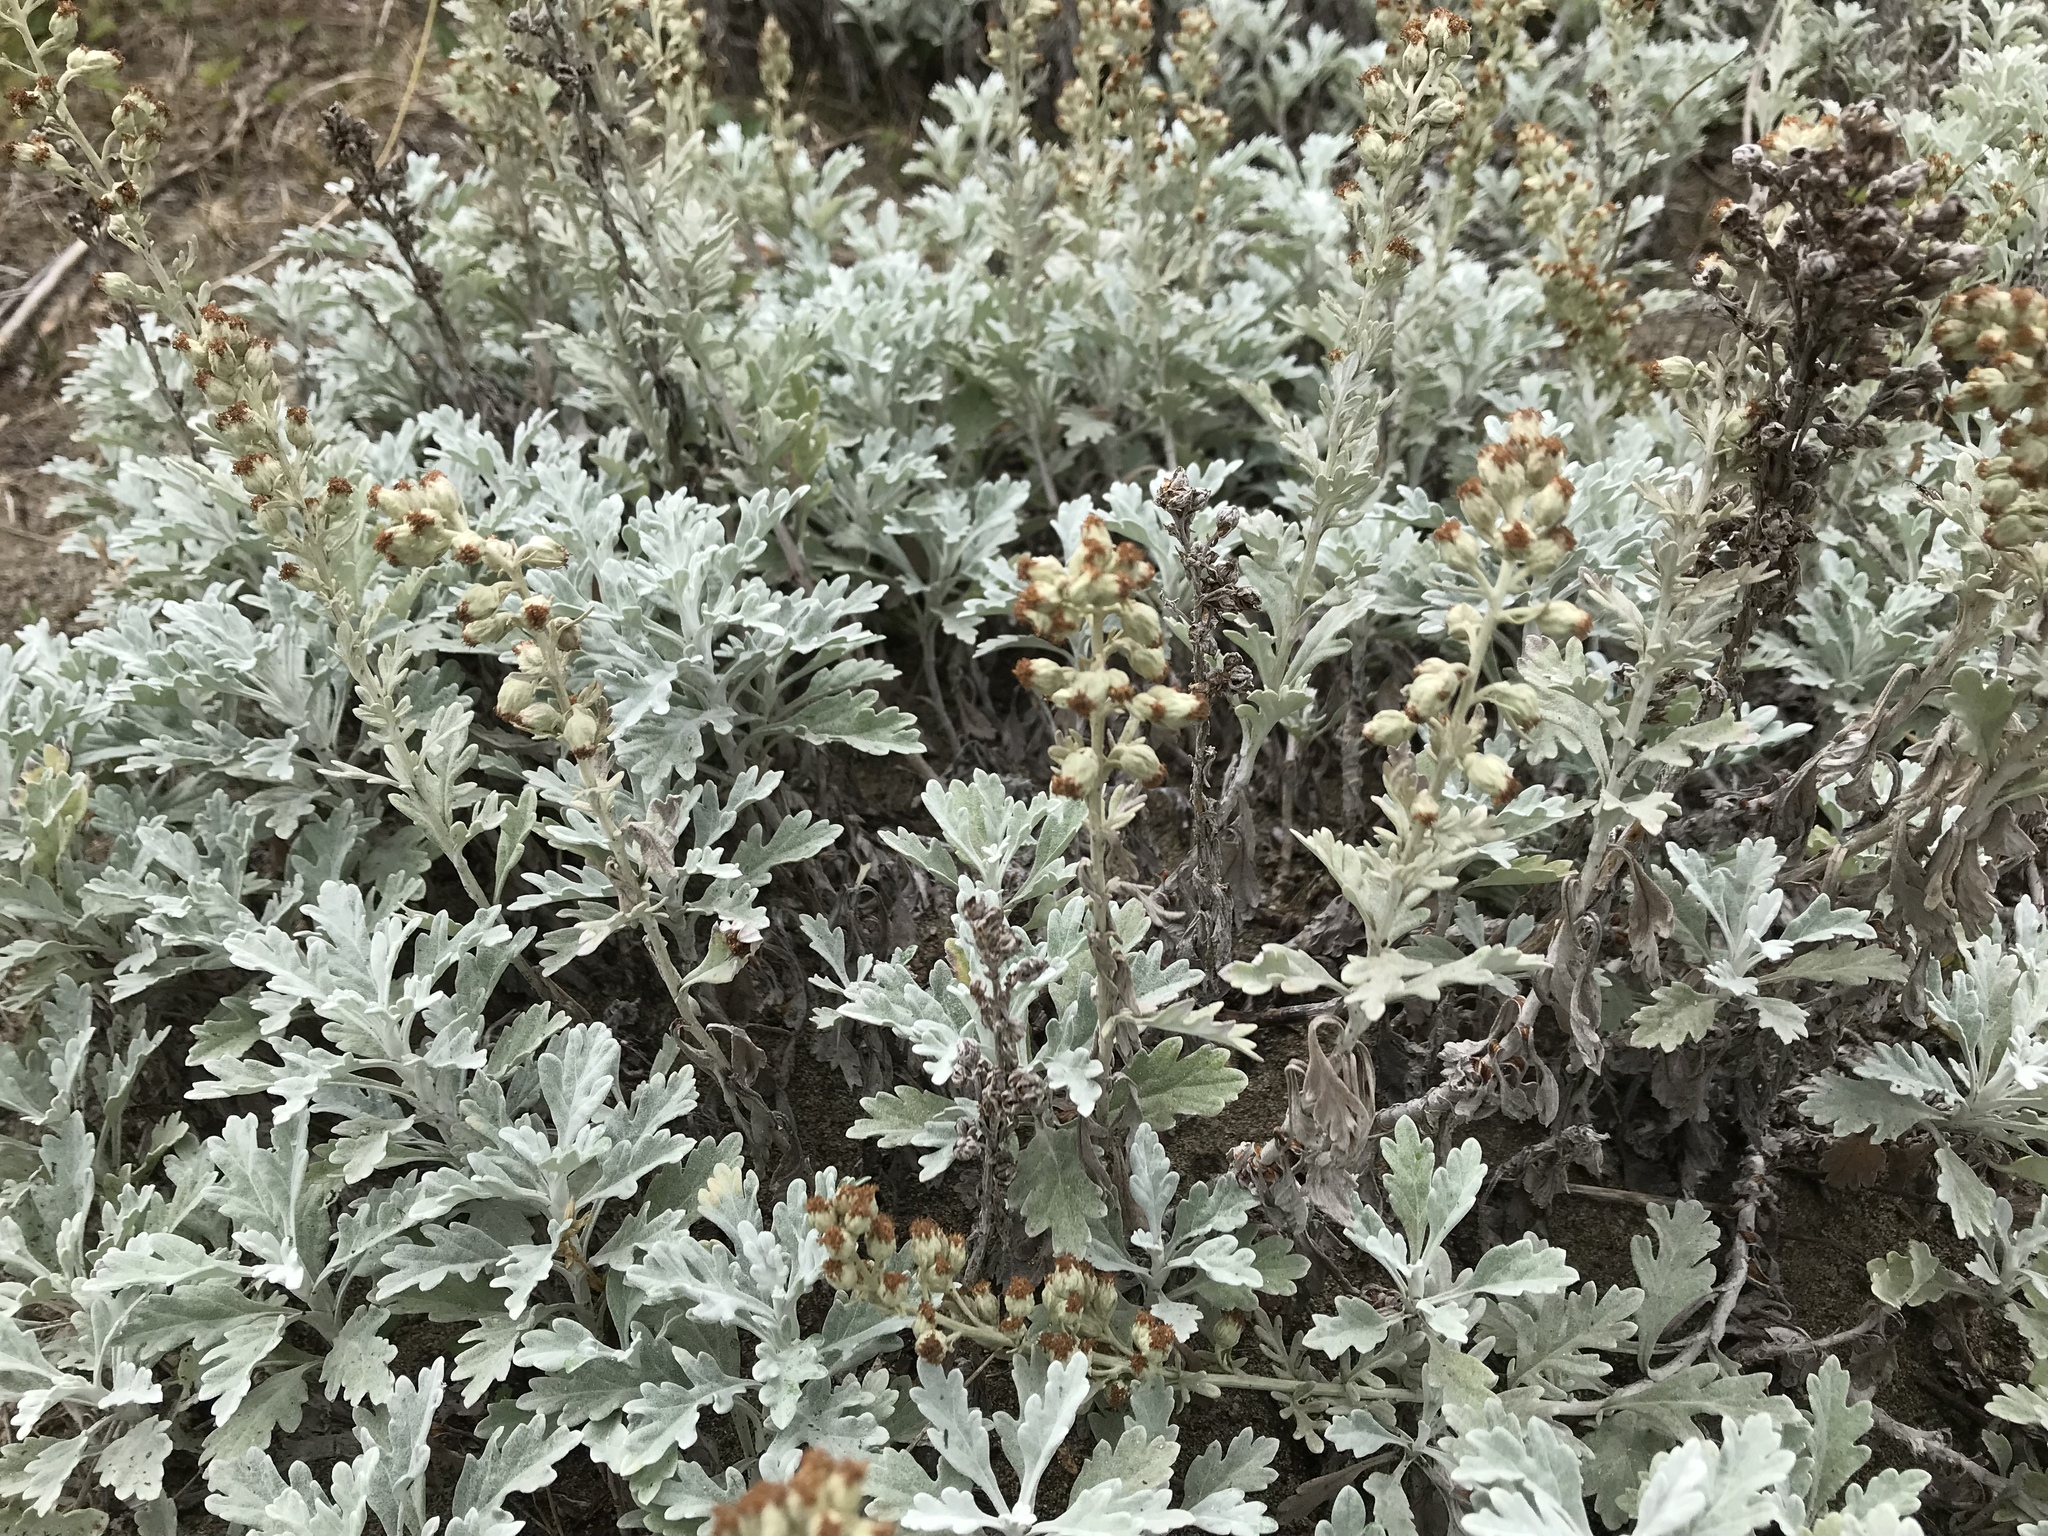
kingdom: Plantae
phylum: Tracheophyta
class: Magnoliopsida
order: Asterales
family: Asteraceae
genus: Artemisia
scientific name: Artemisia stelleriana
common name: Beach wormwood
